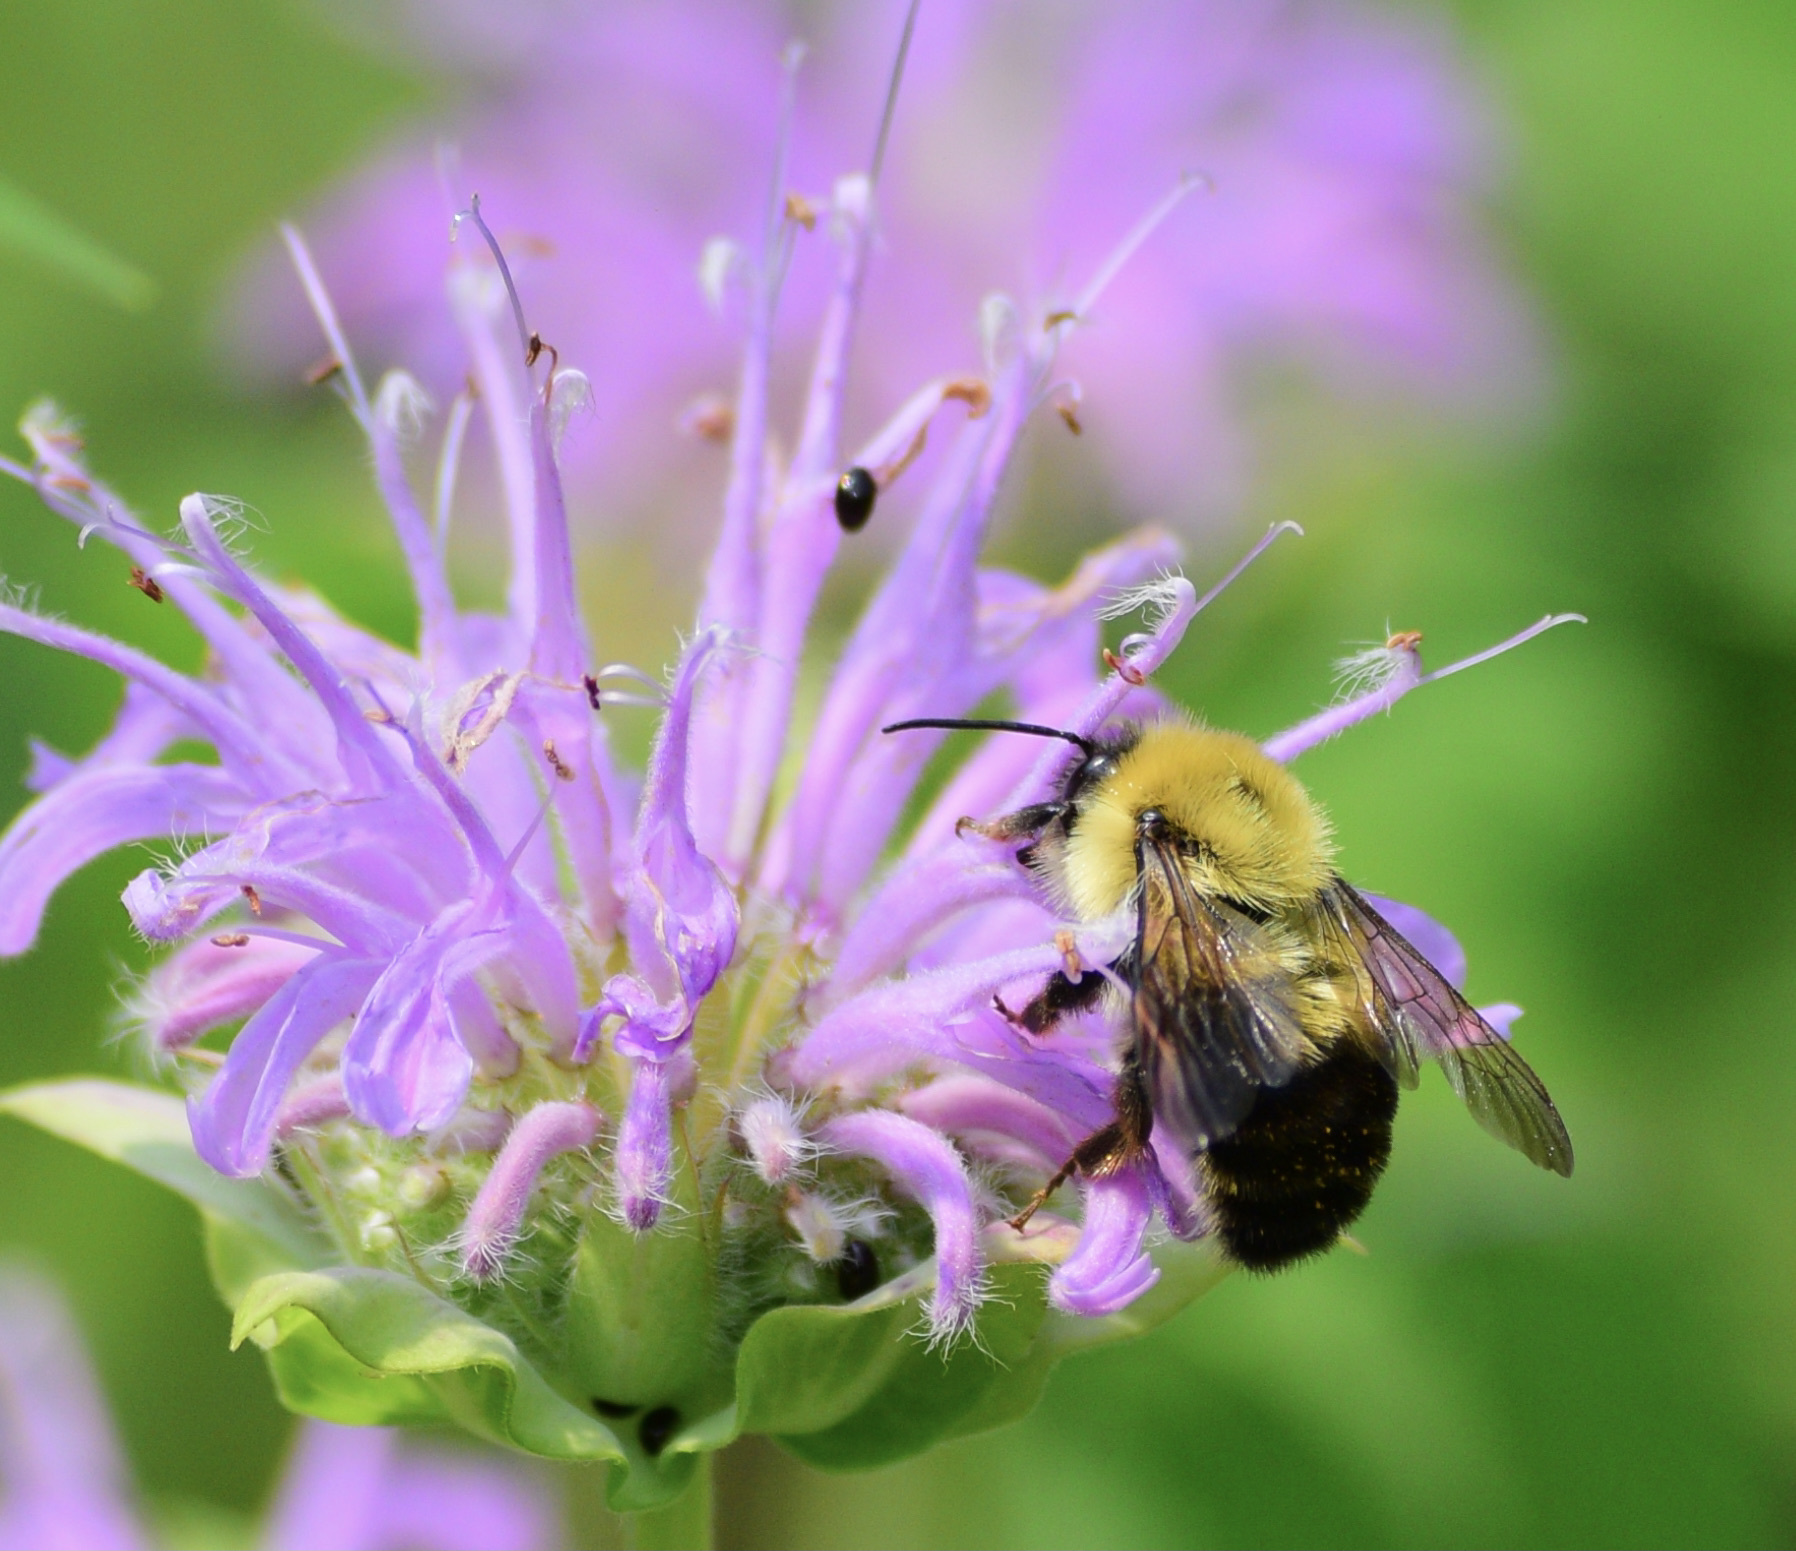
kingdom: Animalia
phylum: Arthropoda
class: Insecta
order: Hymenoptera
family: Apidae
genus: Bombus
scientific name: Bombus bimaculatus
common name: Two-spotted bumble bee
